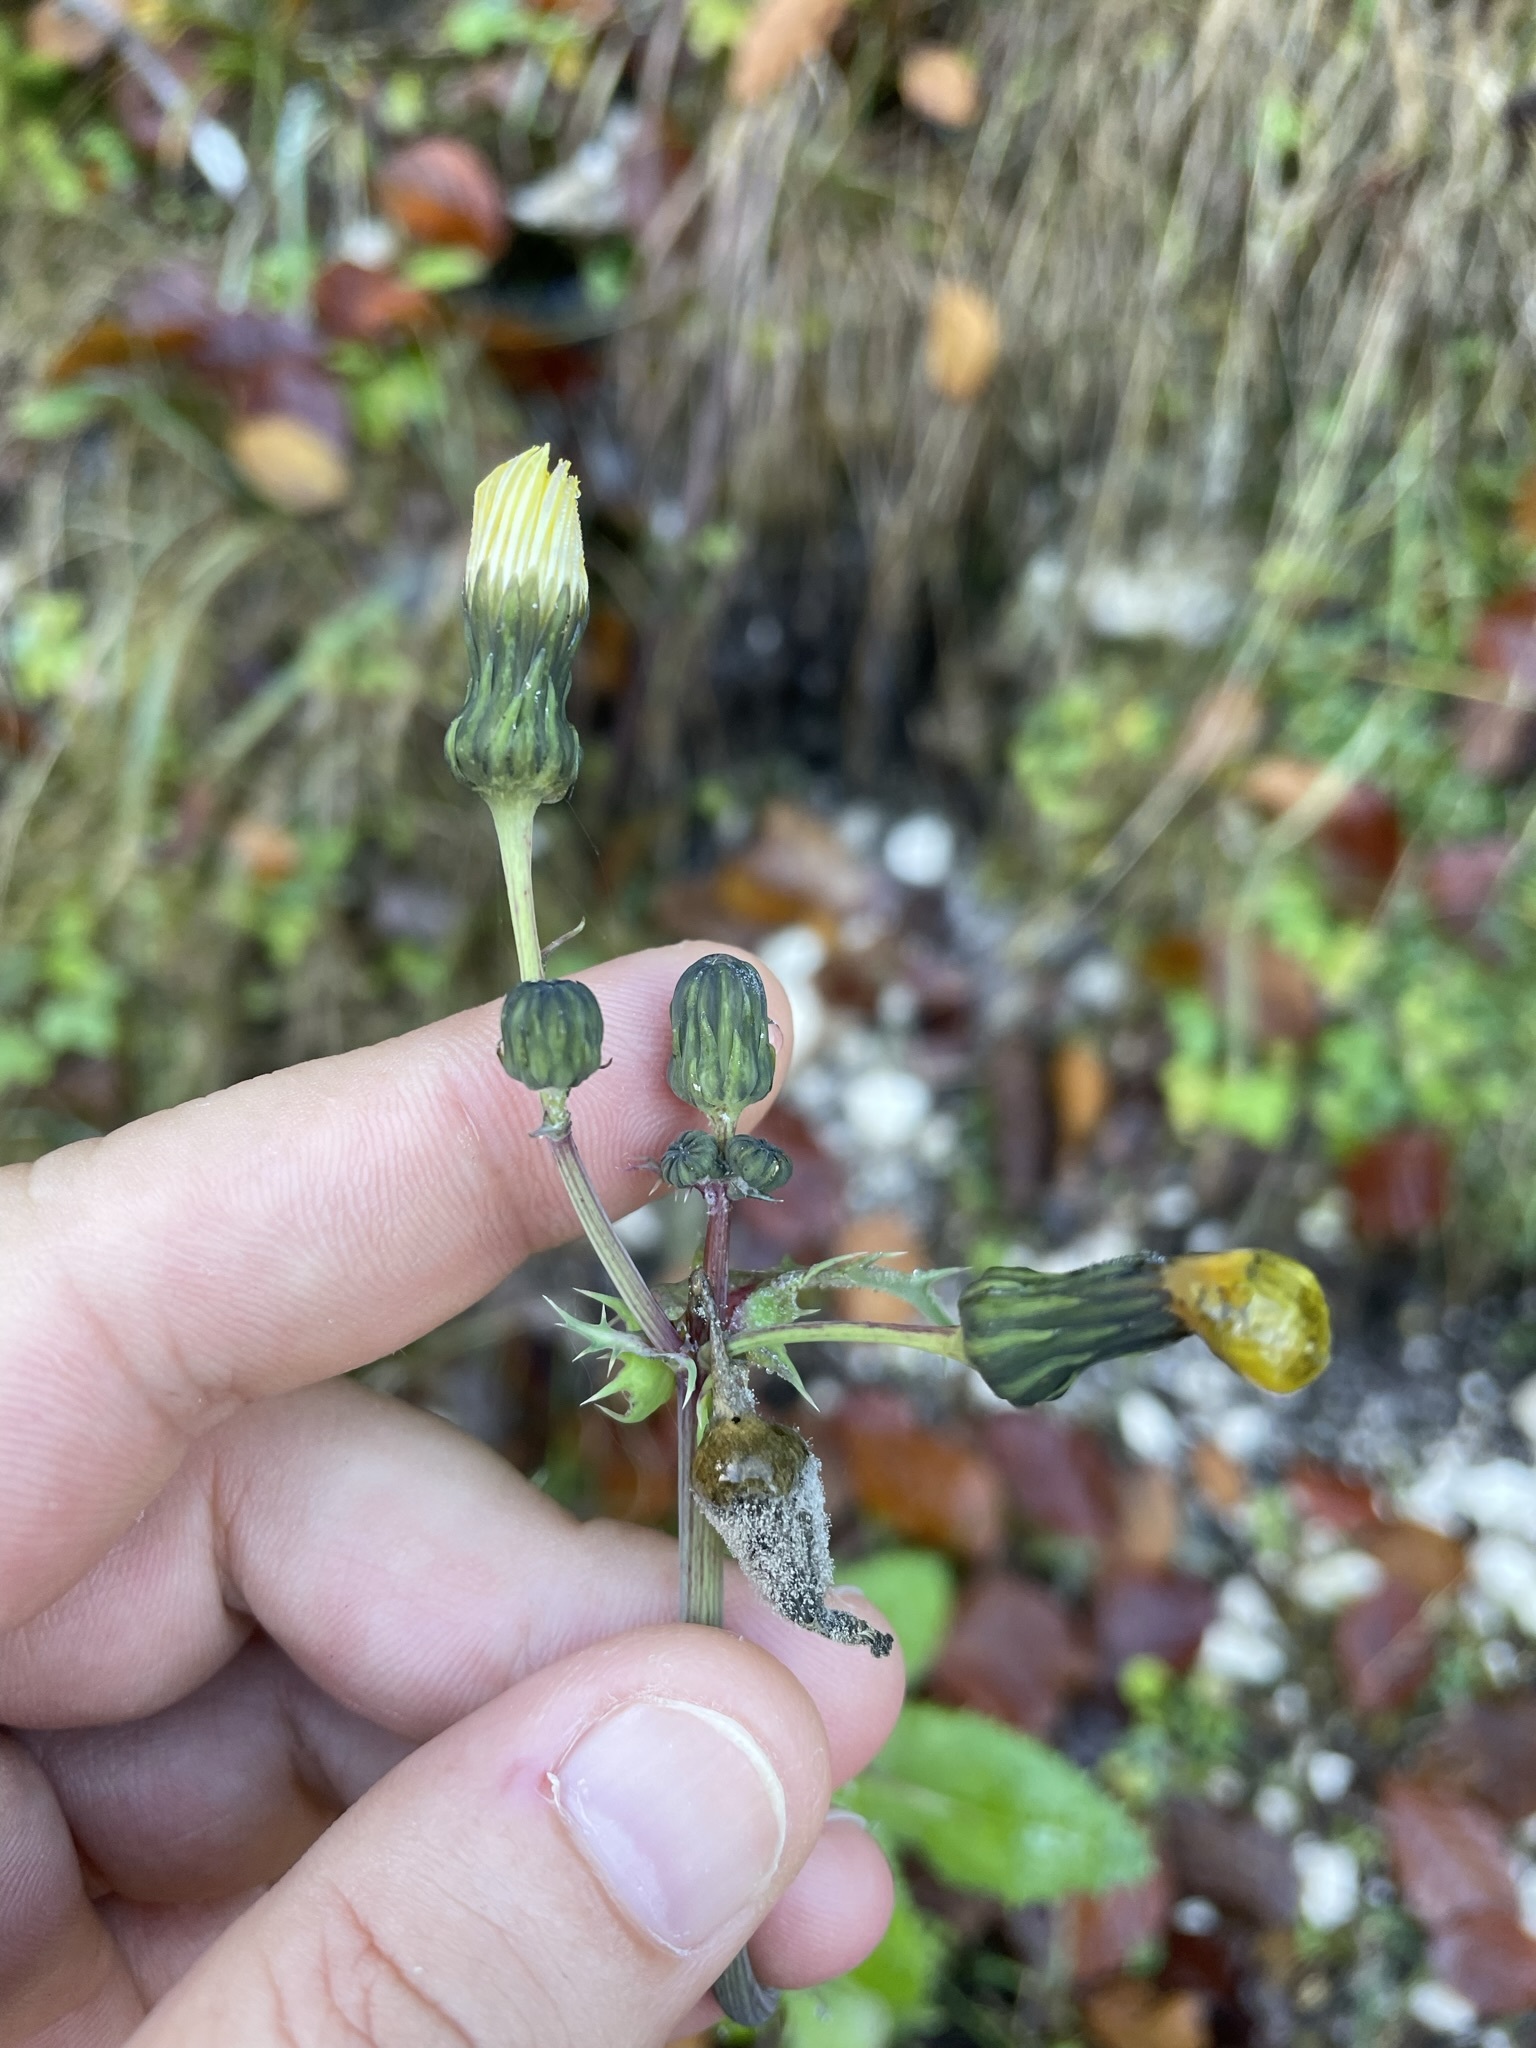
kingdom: Plantae
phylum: Tracheophyta
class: Magnoliopsida
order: Asterales
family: Asteraceae
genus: Sonchus
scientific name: Sonchus asper
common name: Prickly sow-thistle
